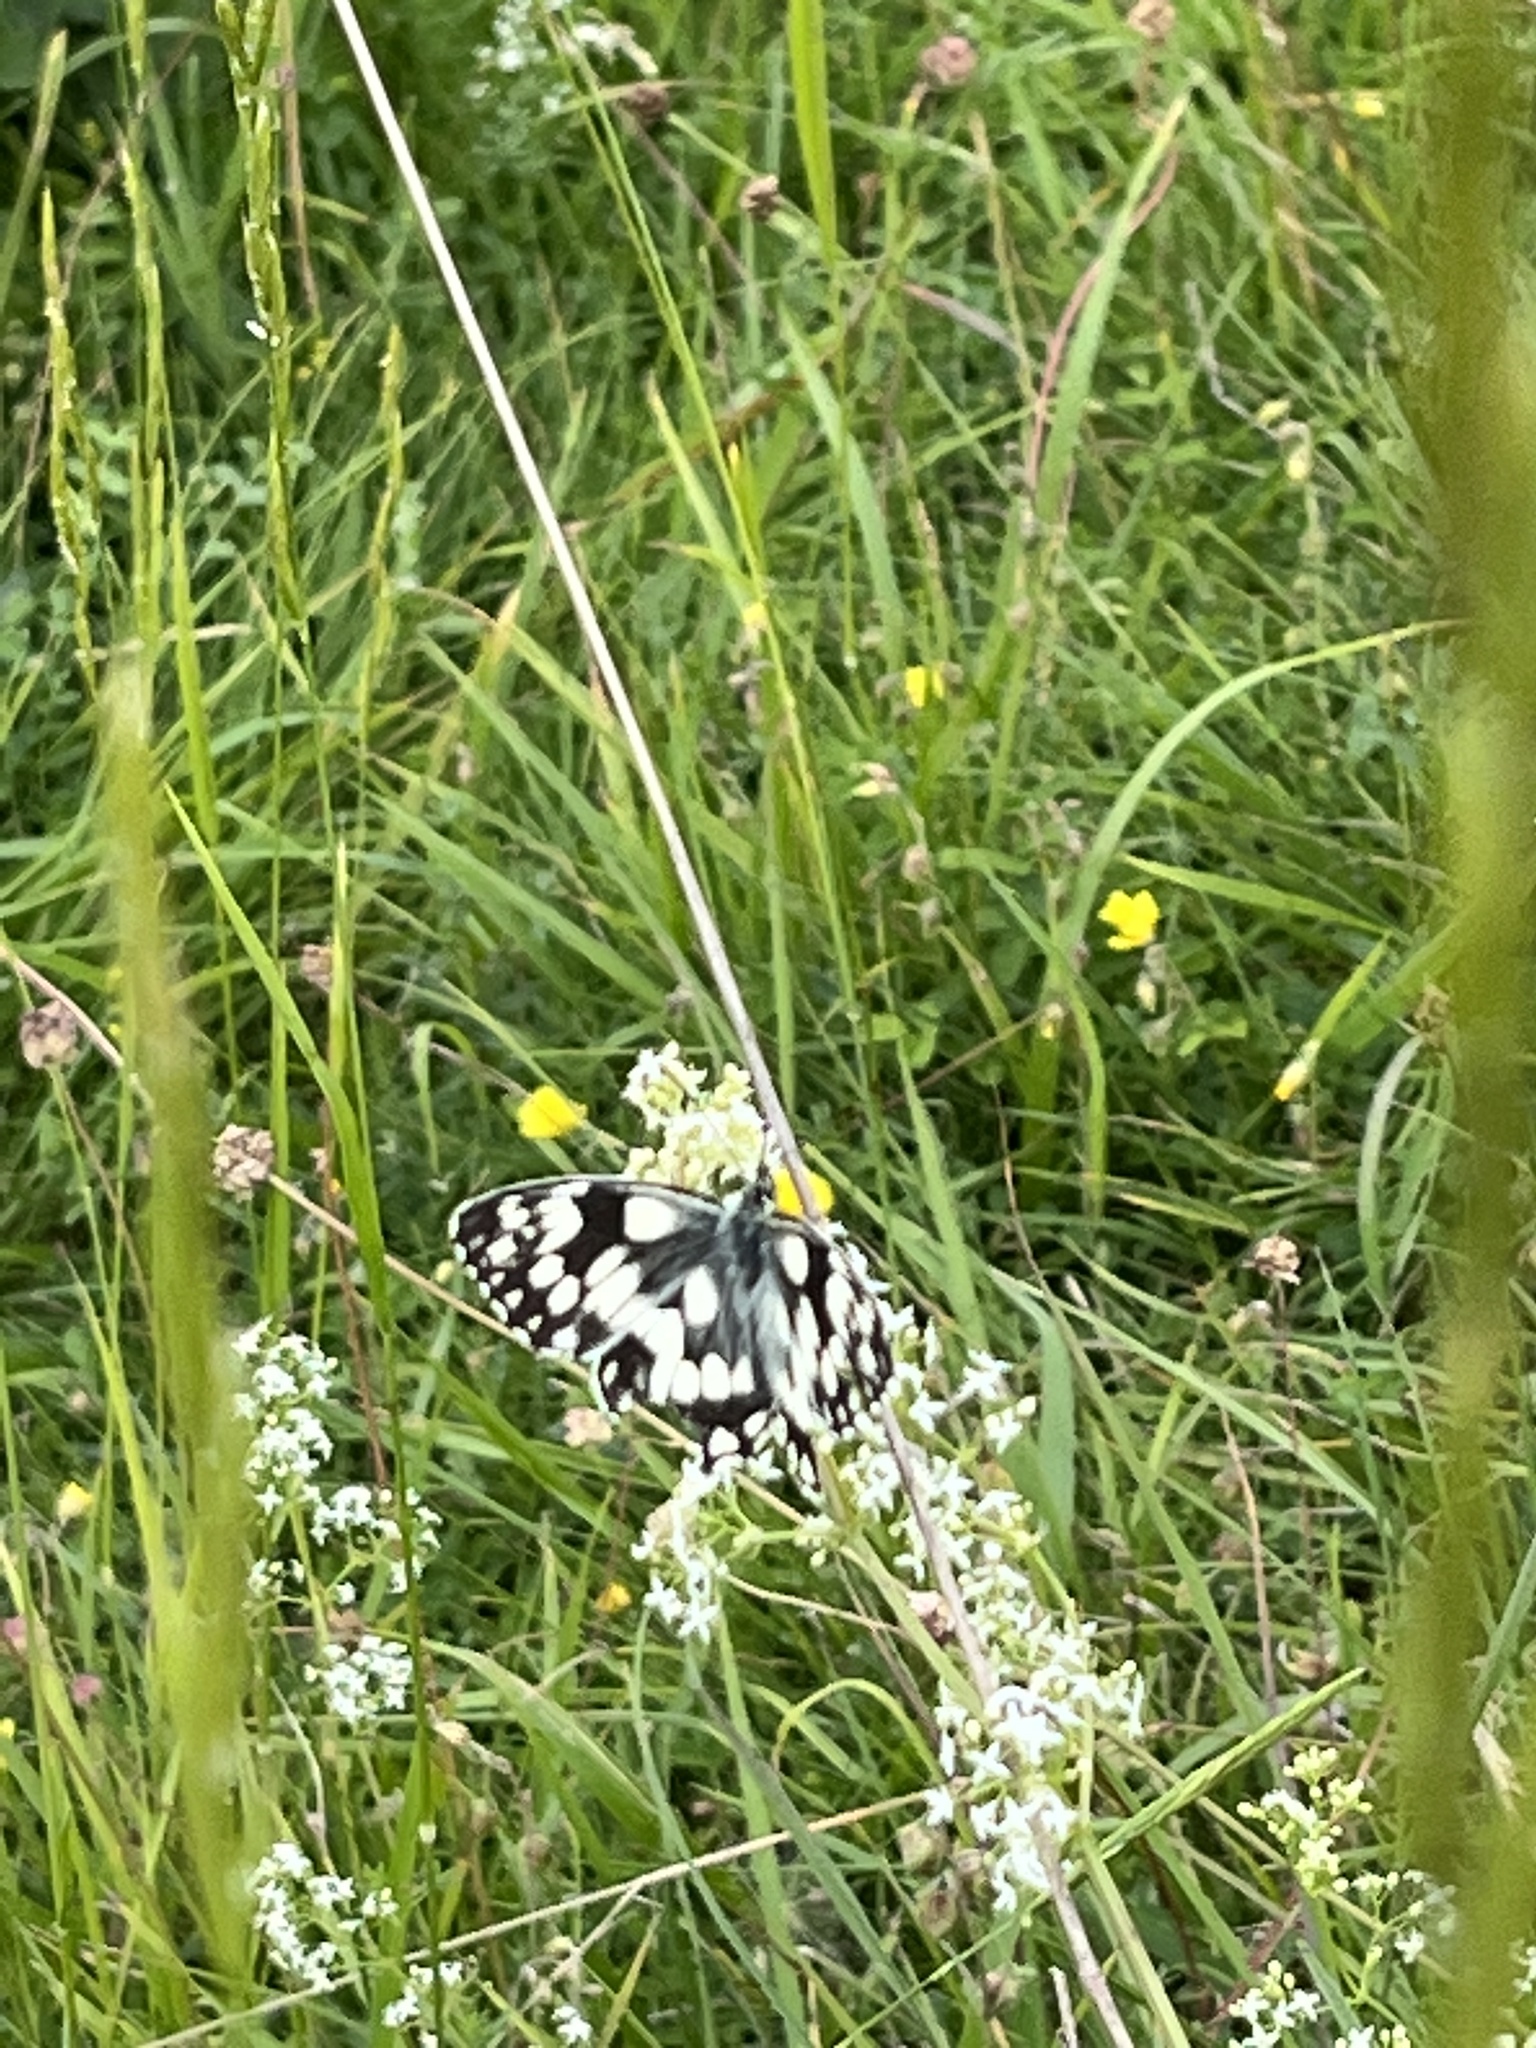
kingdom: Animalia
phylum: Arthropoda
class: Insecta
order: Lepidoptera
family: Nymphalidae
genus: Melanargia
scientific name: Melanargia galathea
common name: Marbled white
